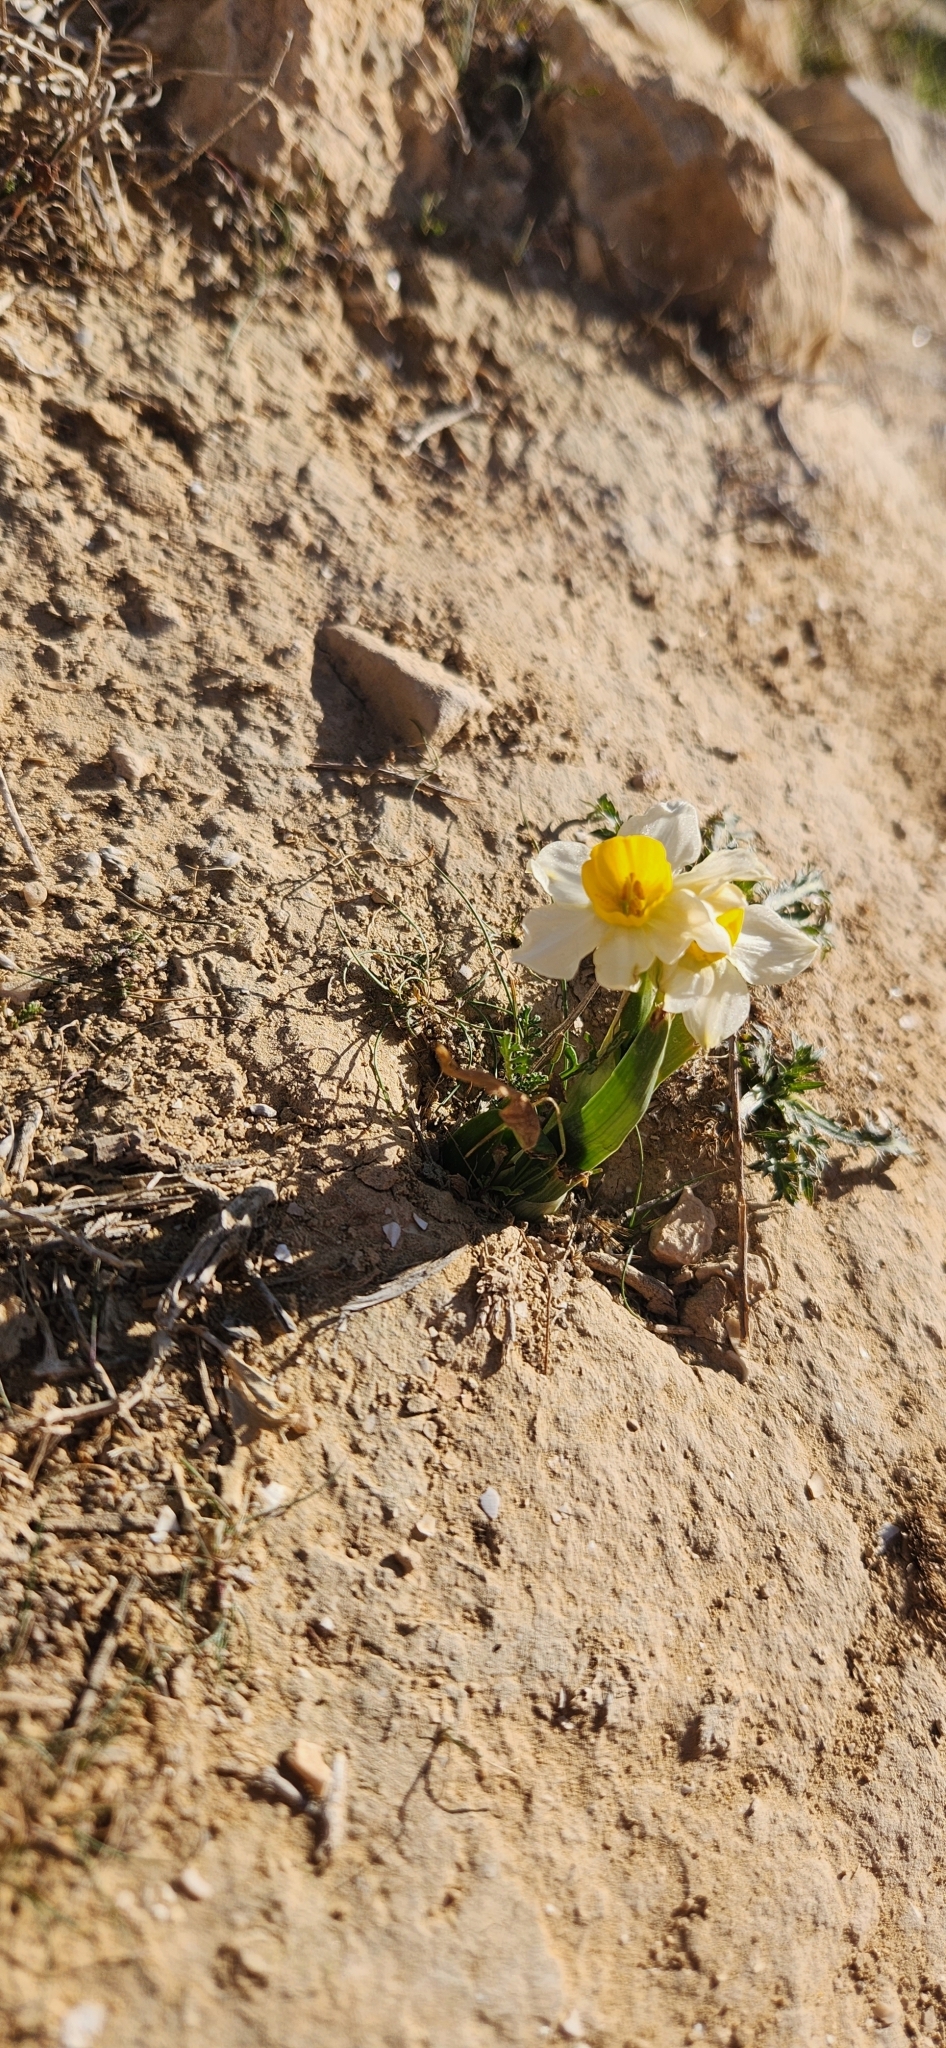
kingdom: Plantae
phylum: Tracheophyta
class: Liliopsida
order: Asparagales
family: Amaryllidaceae
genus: Narcissus
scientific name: Narcissus tazetta
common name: Bunch-flowered daffodil
